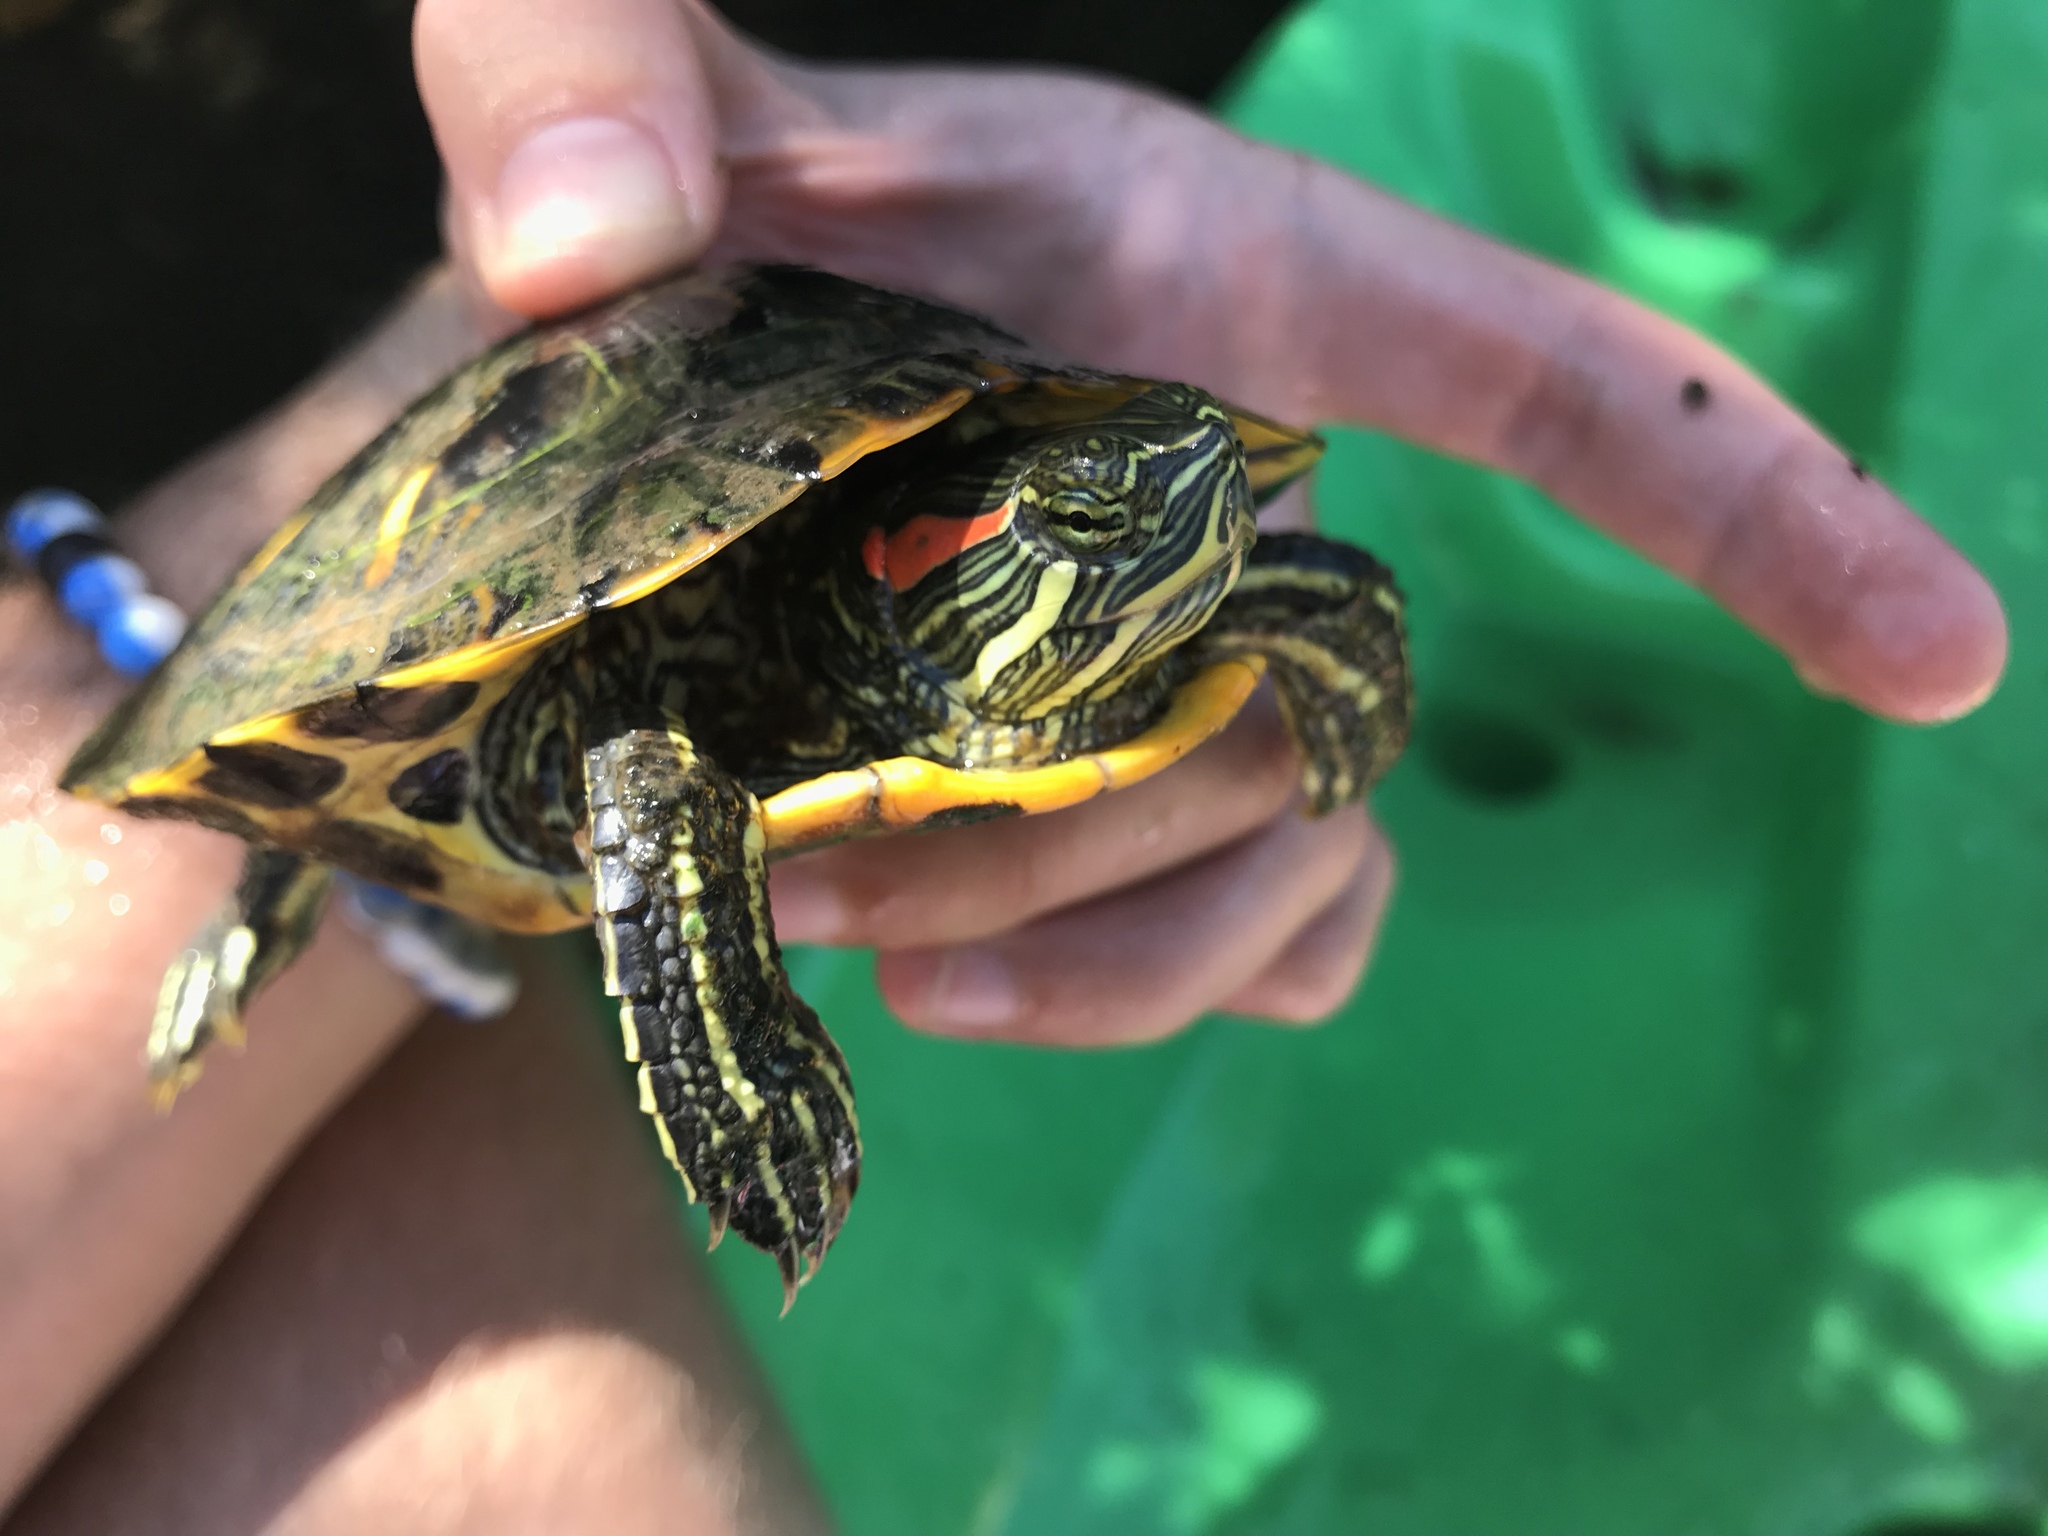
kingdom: Animalia
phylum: Chordata
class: Testudines
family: Emydidae
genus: Trachemys
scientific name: Trachemys scripta
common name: Slider
